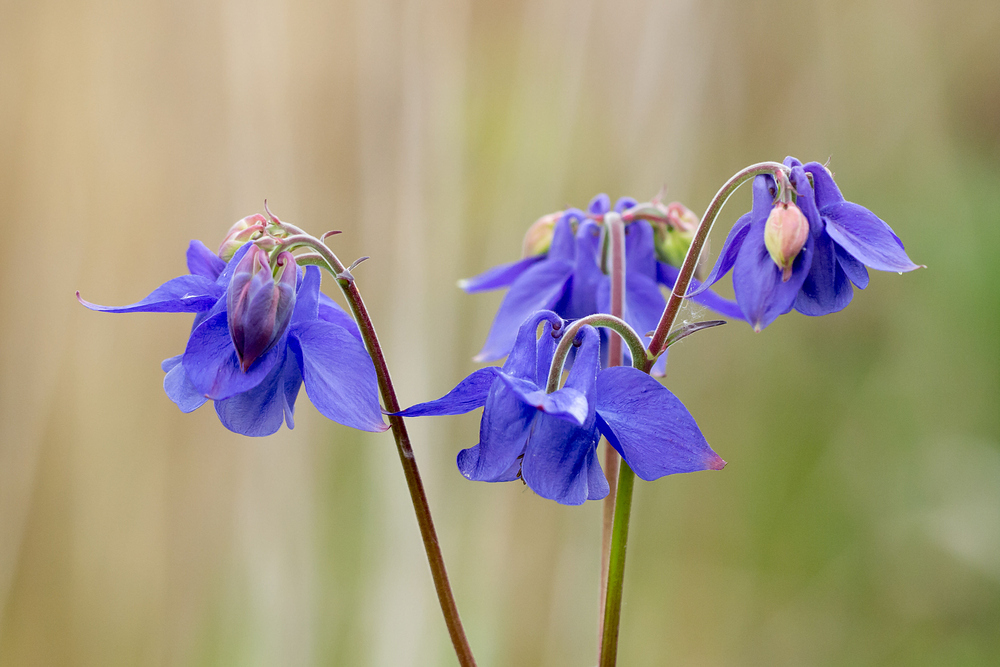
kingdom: Plantae
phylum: Tracheophyta
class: Magnoliopsida
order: Ranunculales
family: Ranunculaceae
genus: Aquilegia
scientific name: Aquilegia vulgaris
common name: Columbine
